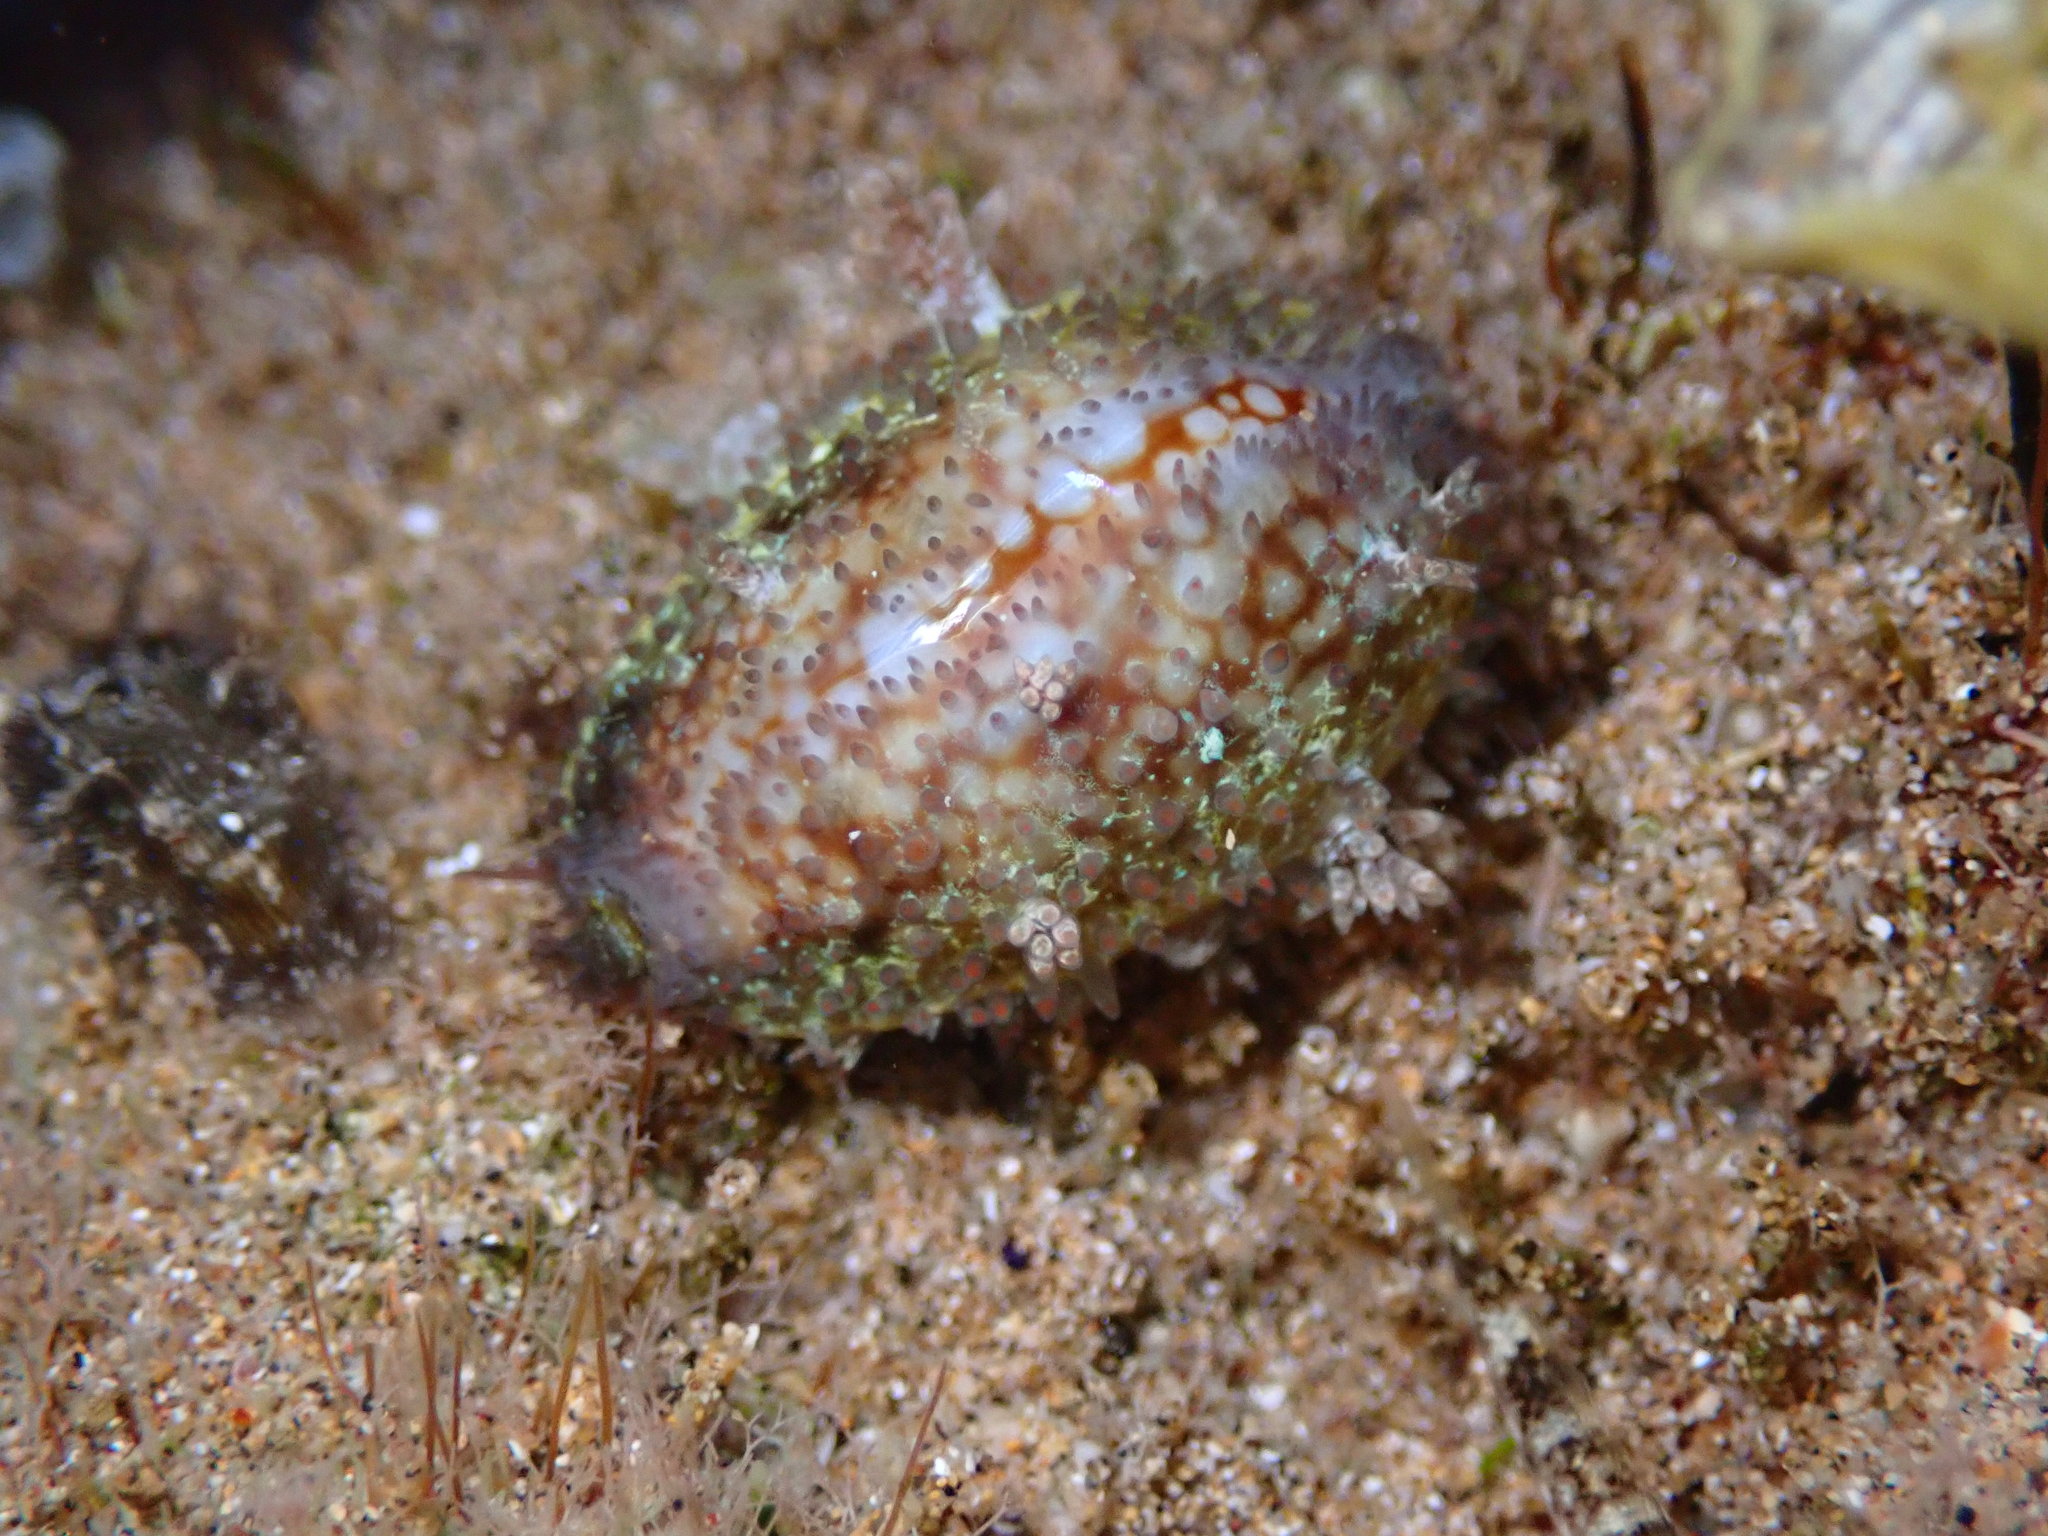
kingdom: Animalia
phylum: Mollusca
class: Gastropoda
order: Littorinimorpha
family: Cypraeidae
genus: Monetaria
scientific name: Monetaria caputophidii
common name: Snake's head cowry
